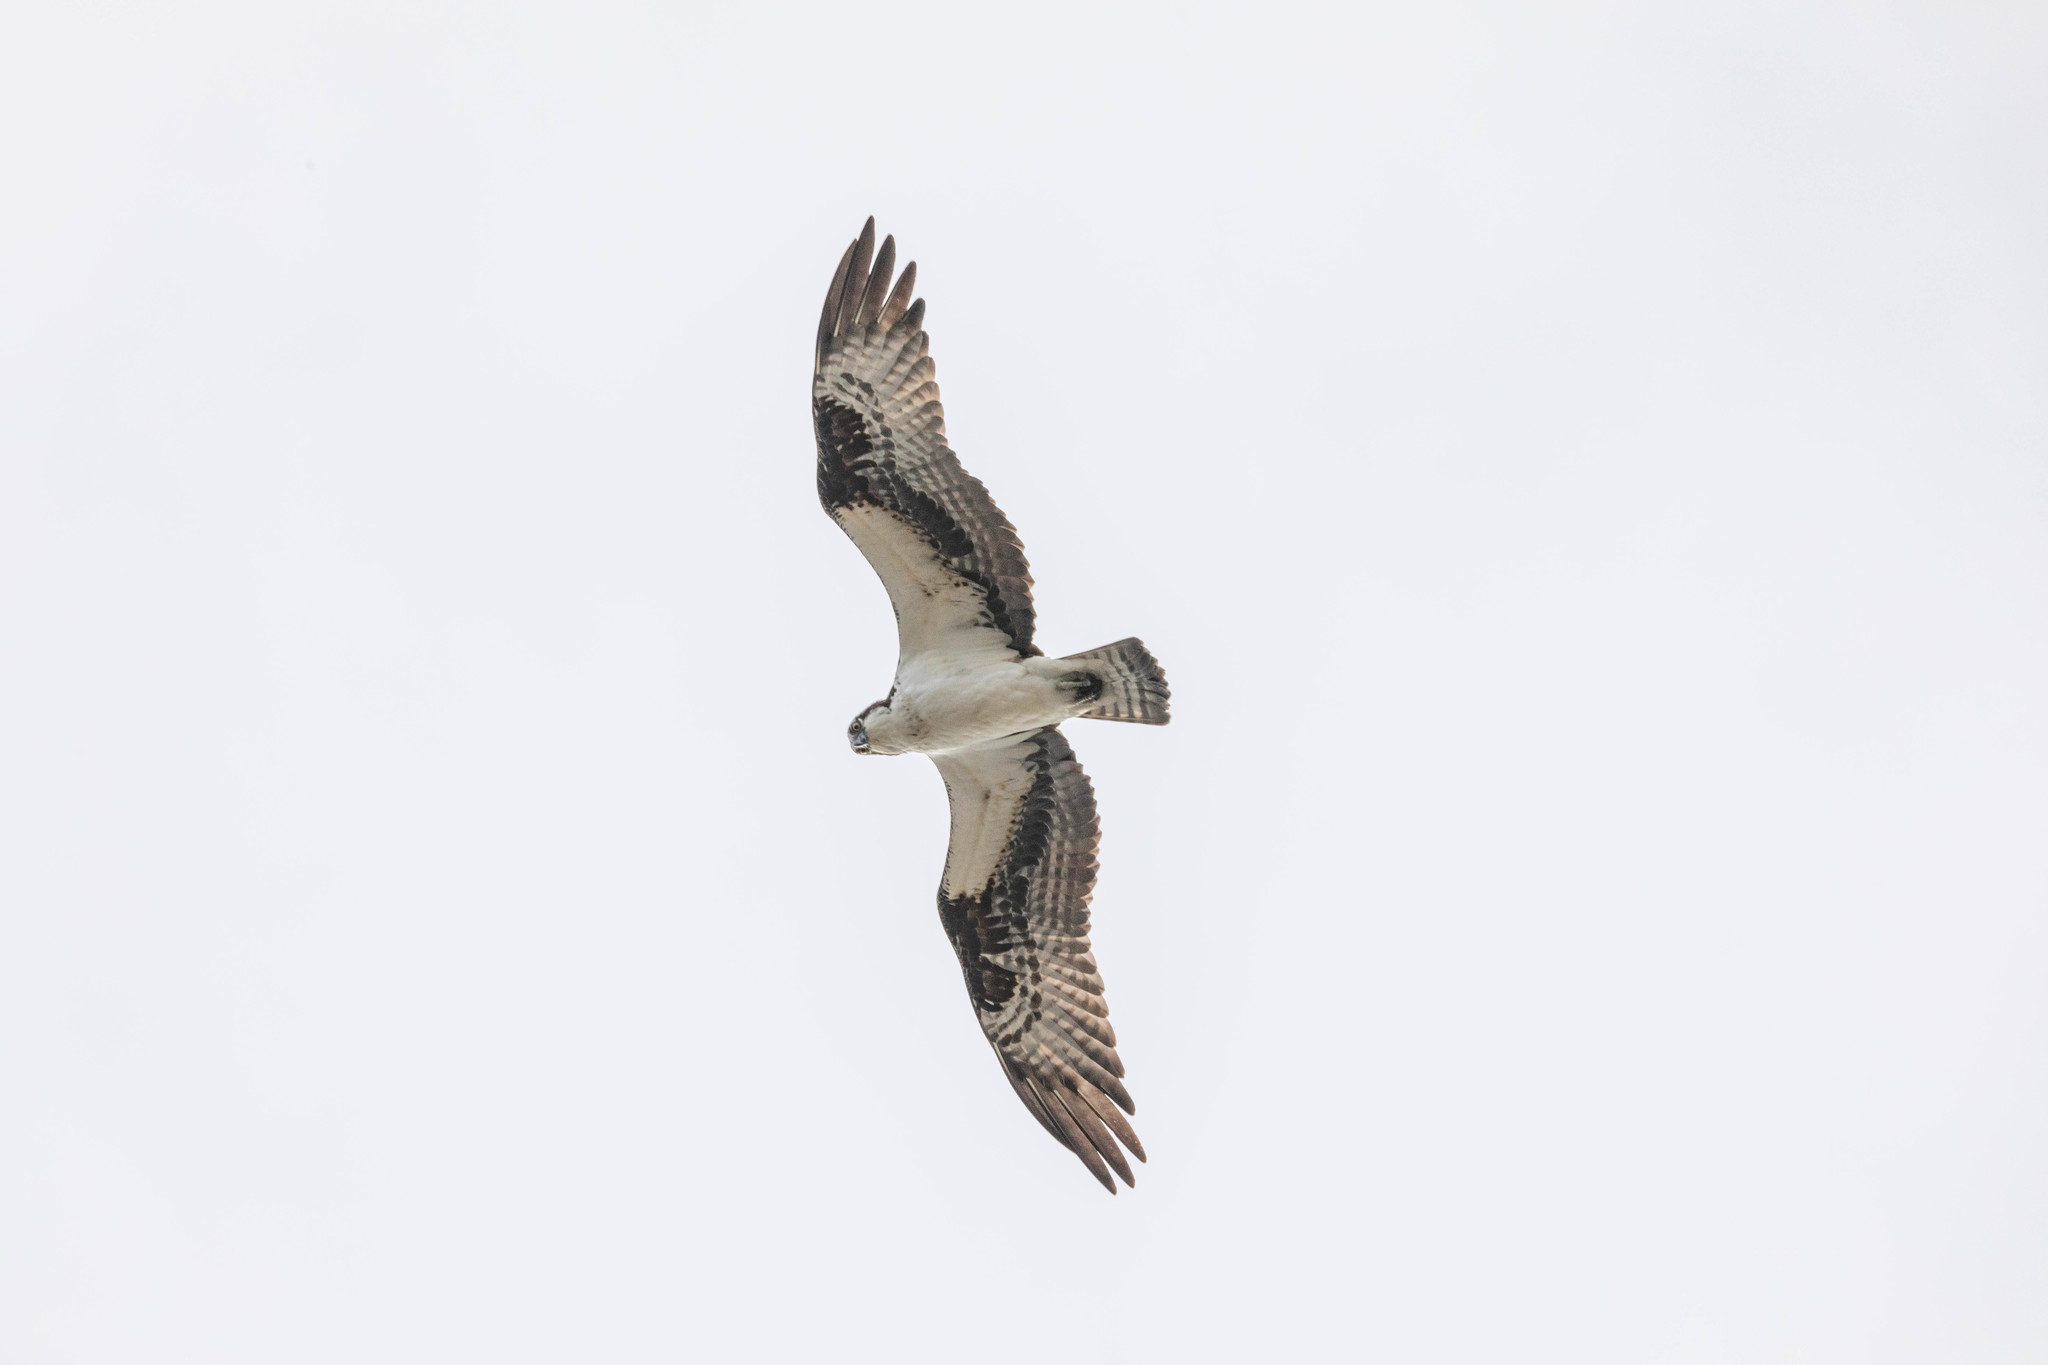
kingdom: Animalia
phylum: Chordata
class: Aves
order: Accipitriformes
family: Pandionidae
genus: Pandion
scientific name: Pandion haliaetus
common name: Osprey
